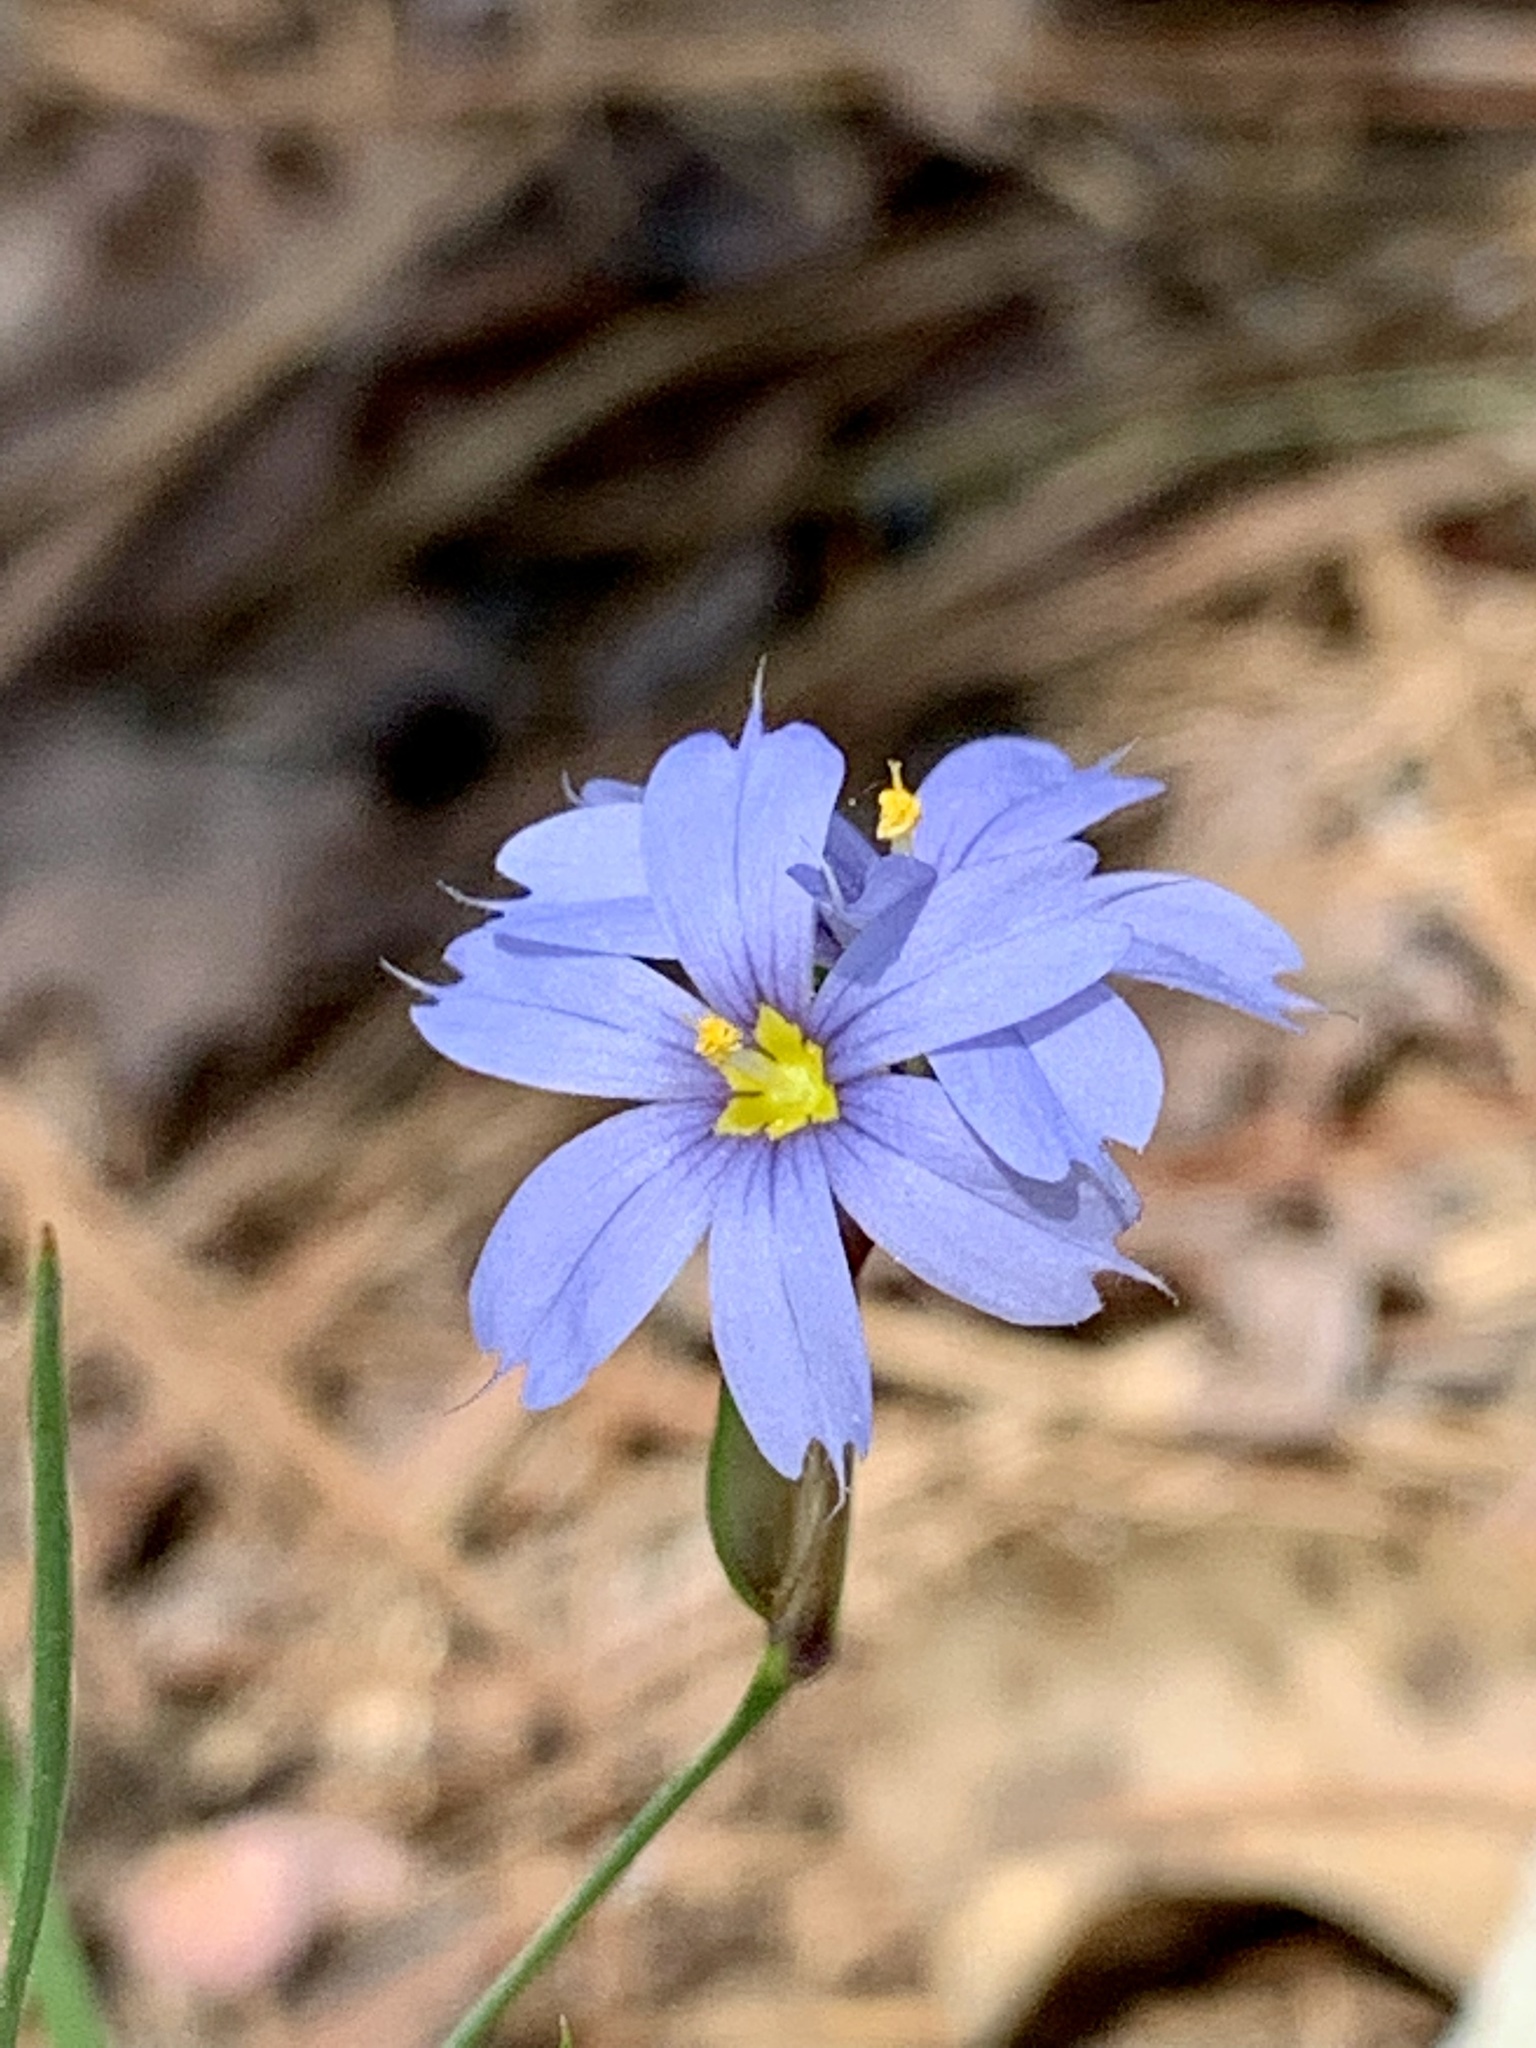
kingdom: Plantae
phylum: Tracheophyta
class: Liliopsida
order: Asparagales
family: Iridaceae
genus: Sisyrinchium
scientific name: Sisyrinchium sagittiferum
